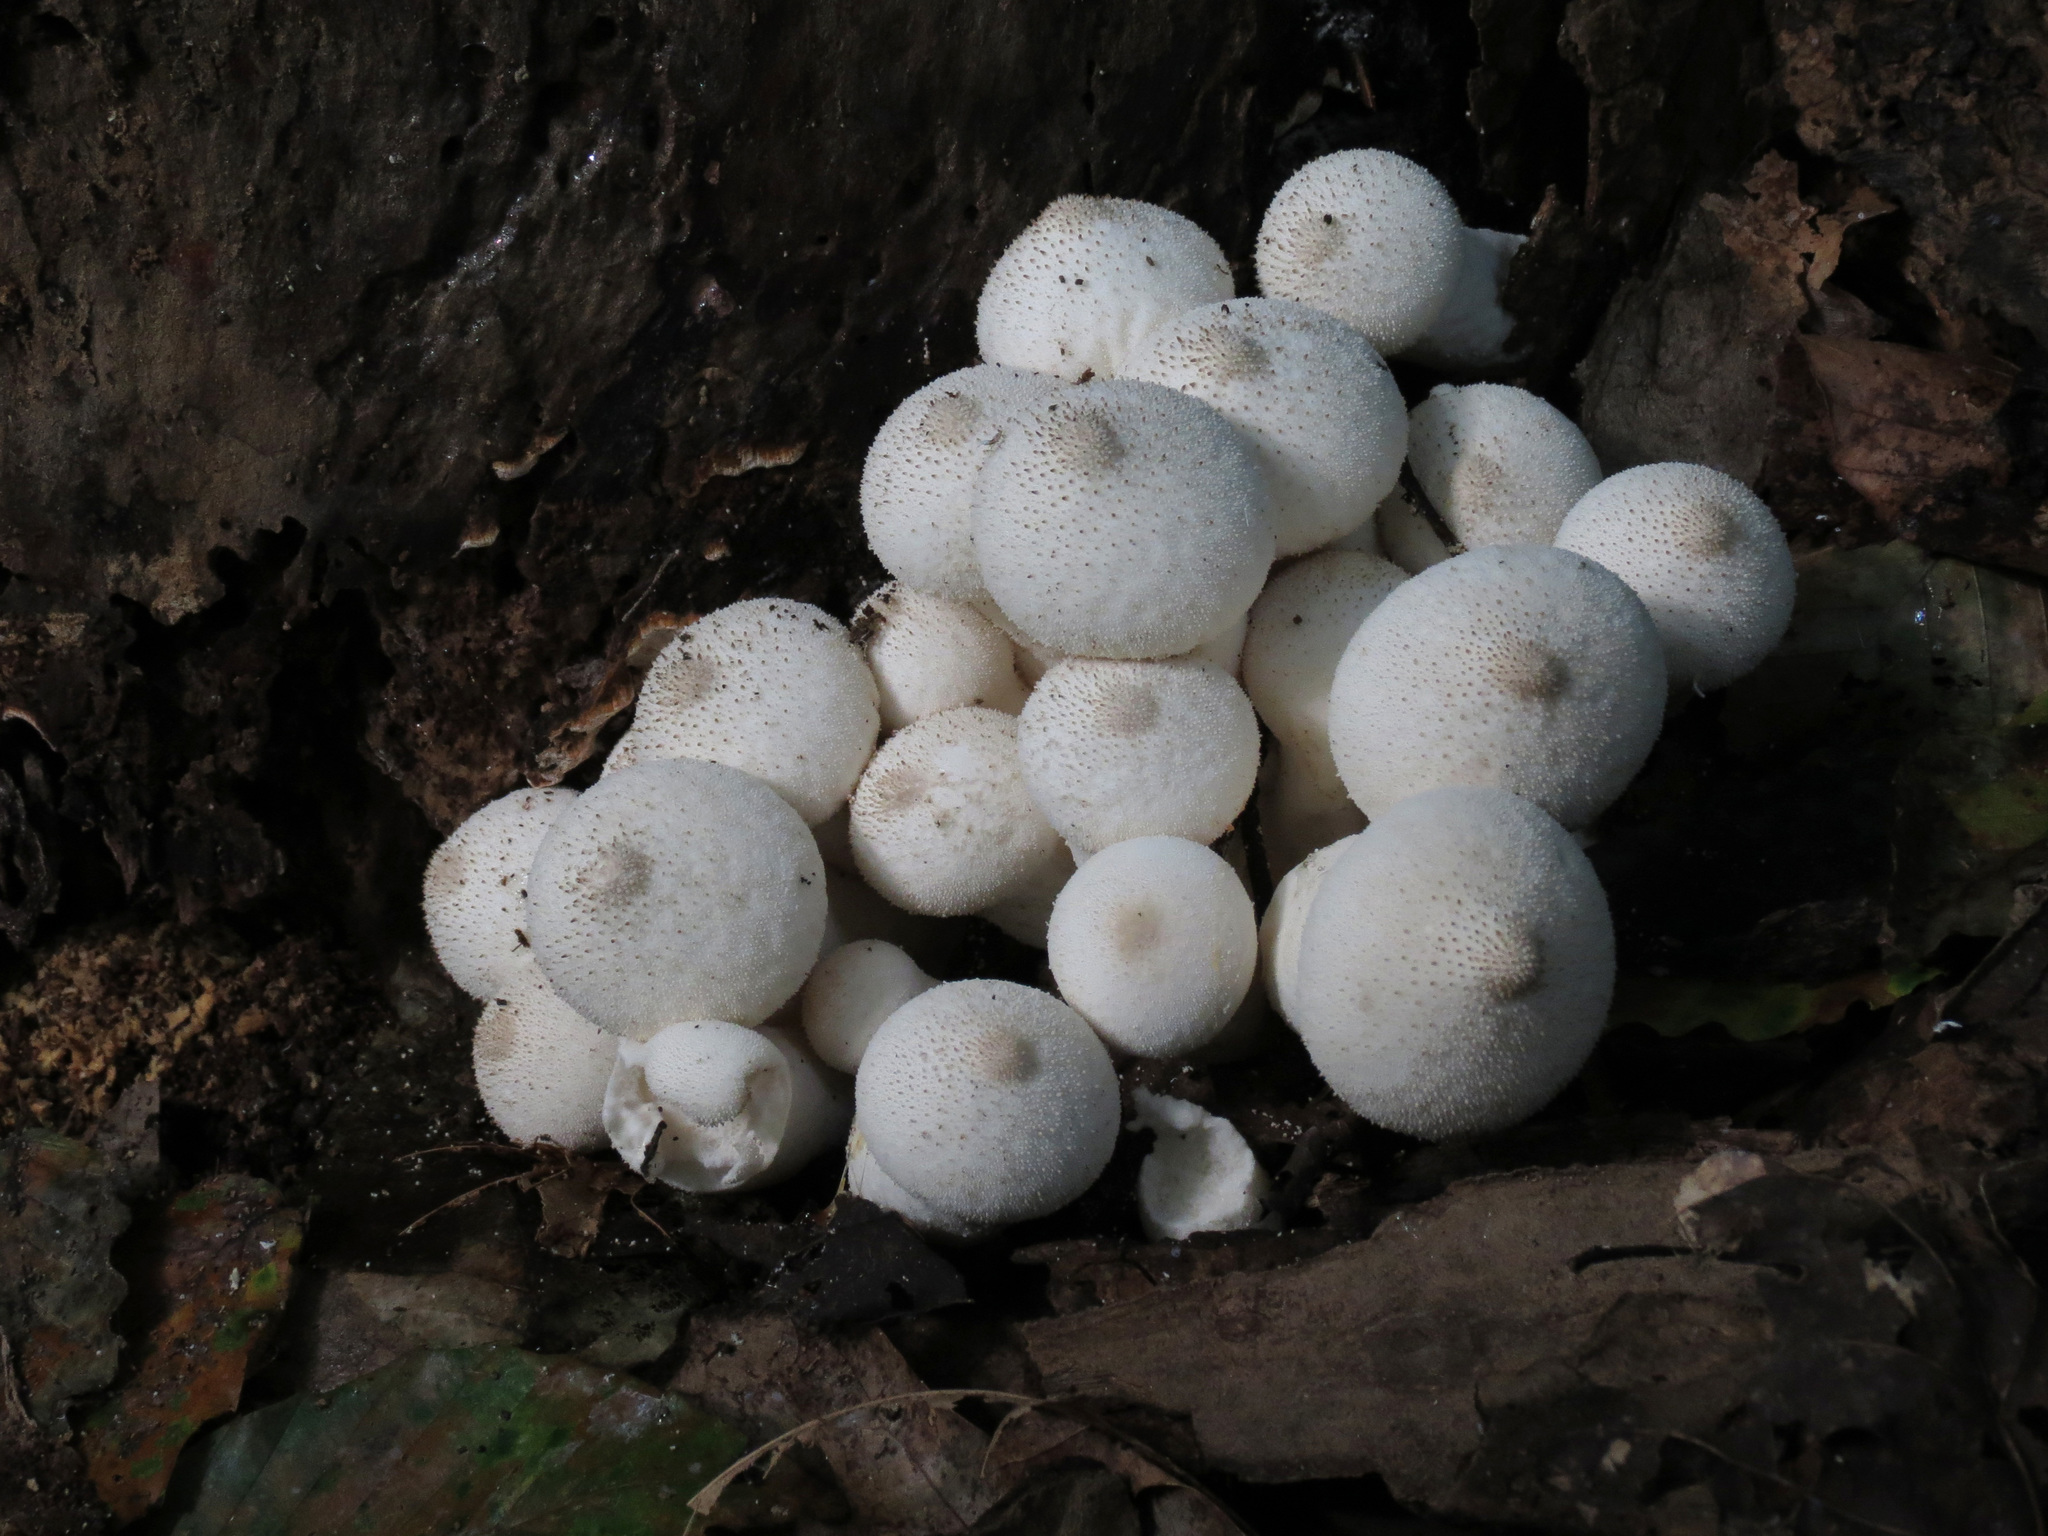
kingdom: Fungi
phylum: Basidiomycota
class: Agaricomycetes
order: Agaricales
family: Lycoperdaceae
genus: Apioperdon
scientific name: Apioperdon pyriforme
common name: Pear-shaped puffball
